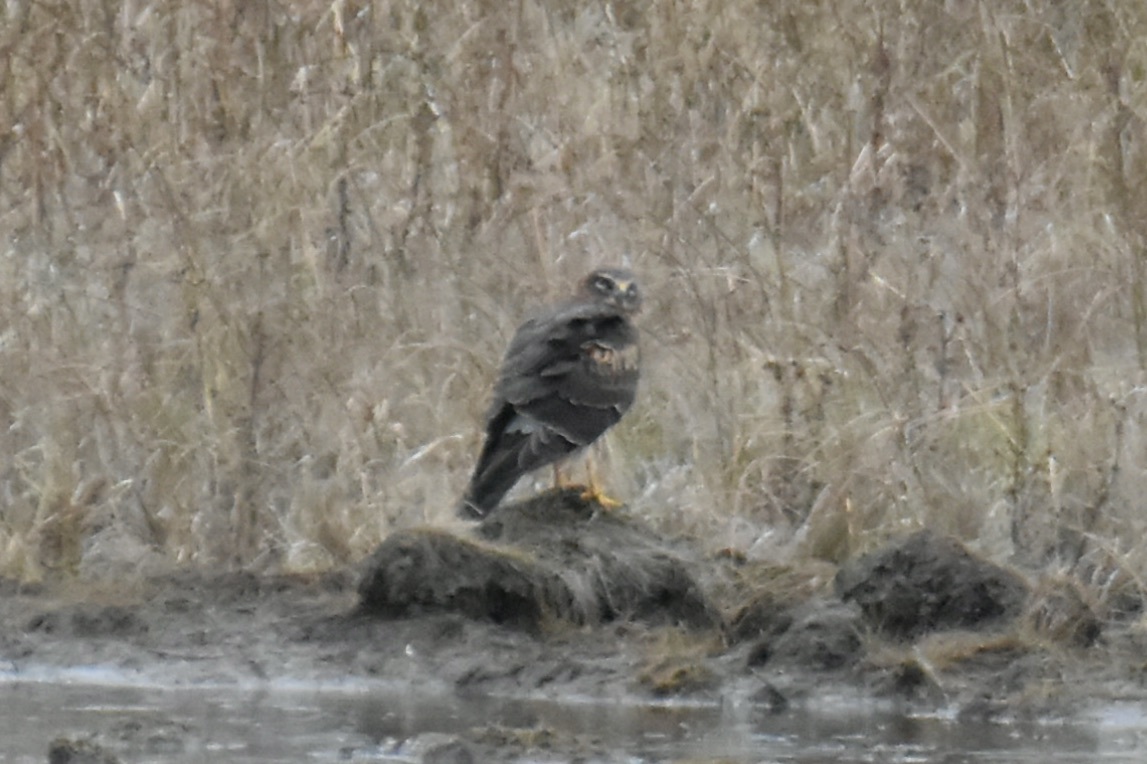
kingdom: Animalia
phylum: Chordata
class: Aves
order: Accipitriformes
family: Accipitridae
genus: Circus
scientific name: Circus cyaneus
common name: Hen harrier
